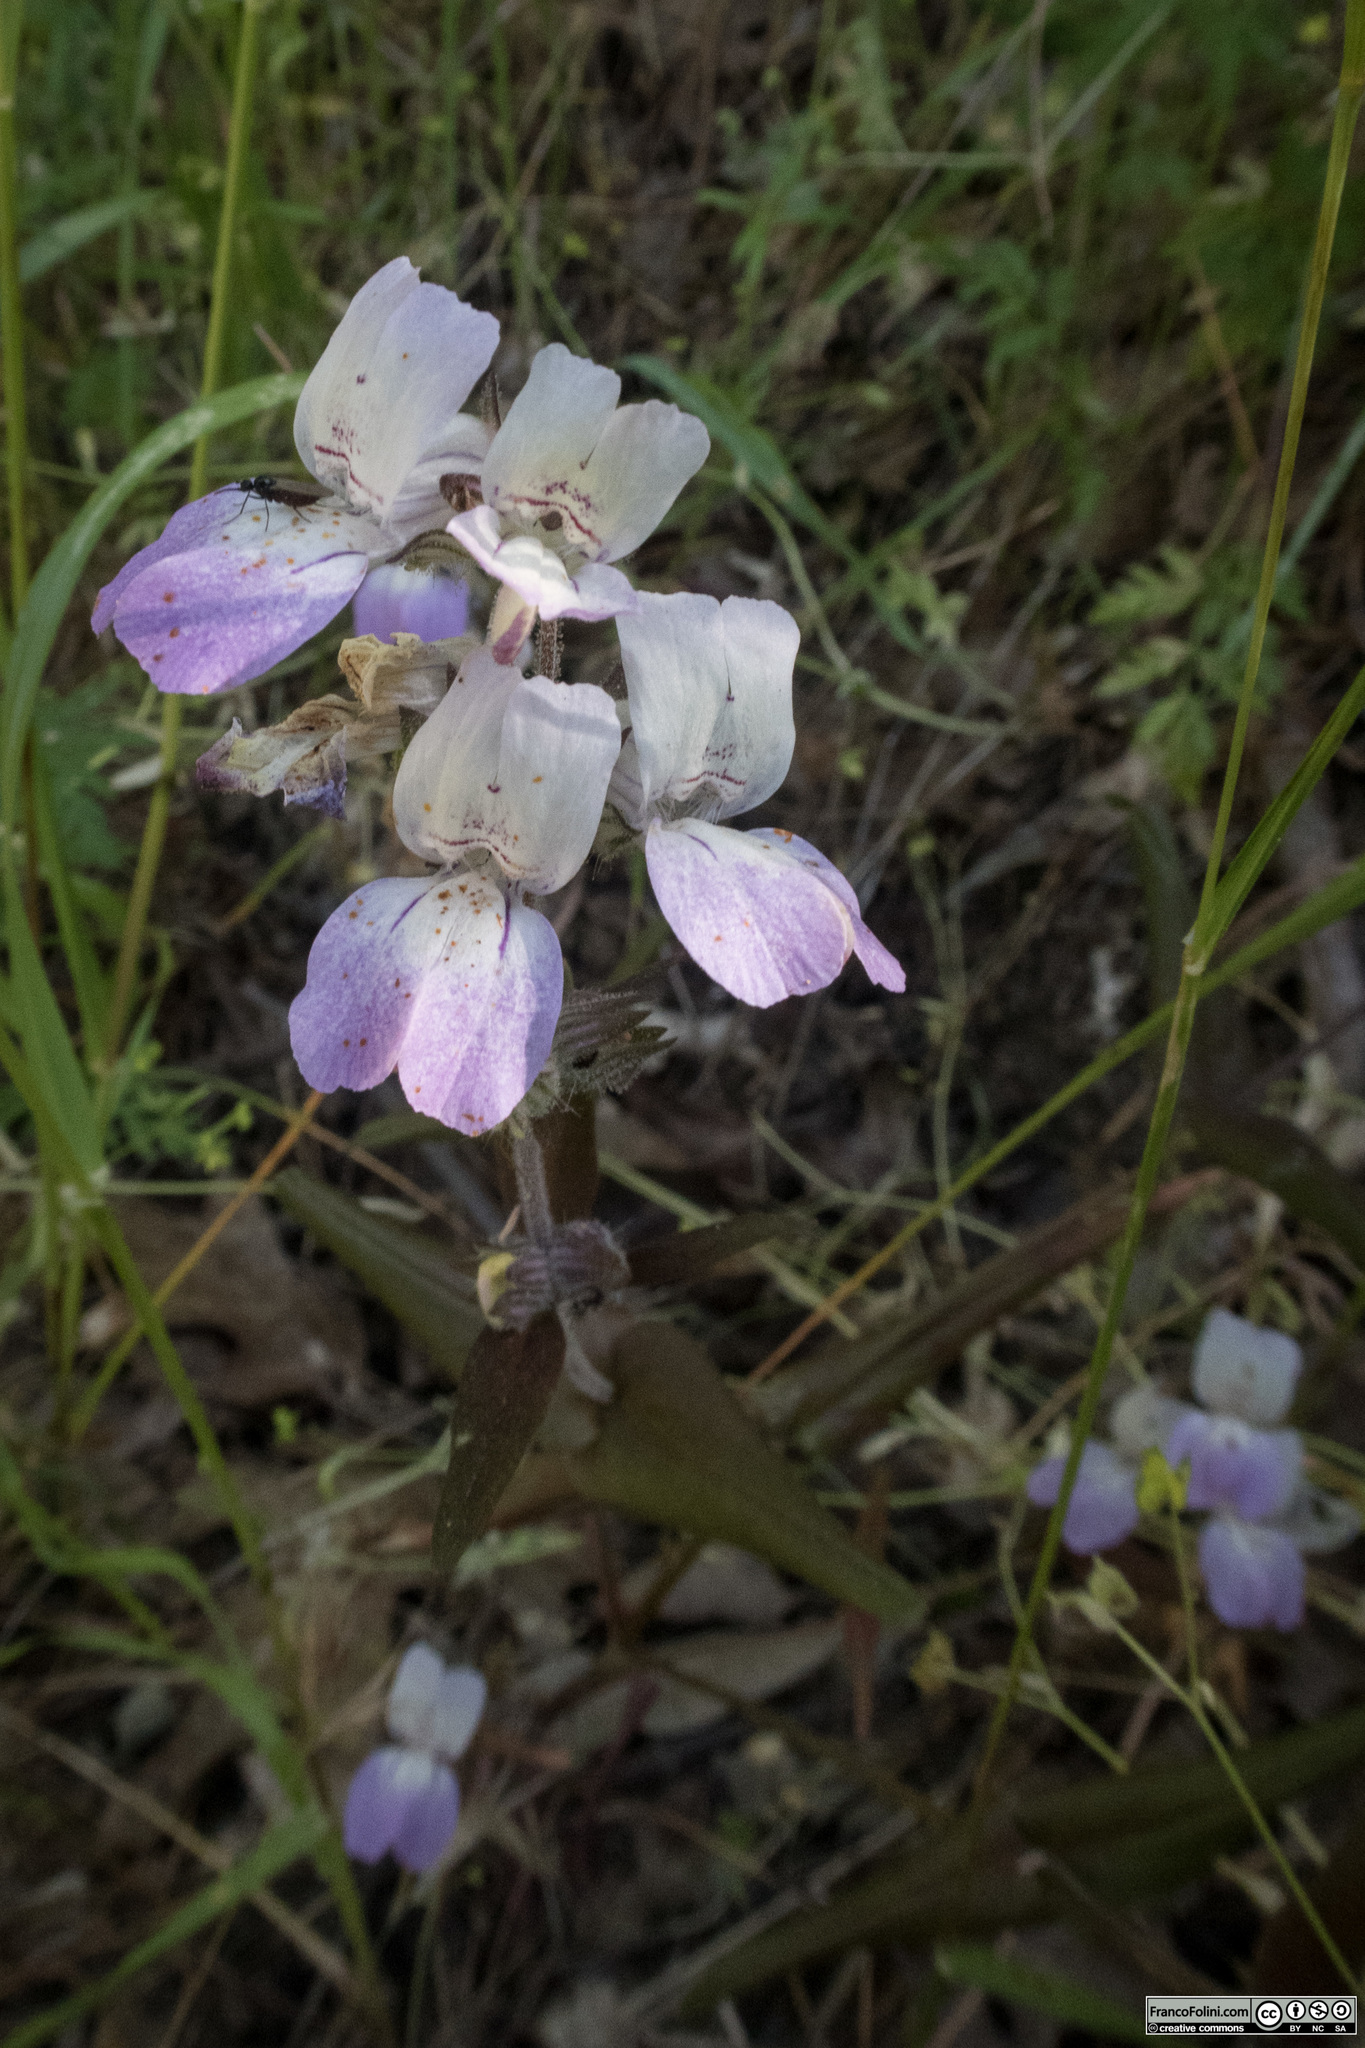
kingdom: Plantae
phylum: Tracheophyta
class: Magnoliopsida
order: Lamiales
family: Plantaginaceae
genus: Collinsia
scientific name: Collinsia heterophylla
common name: Chinese-houses
